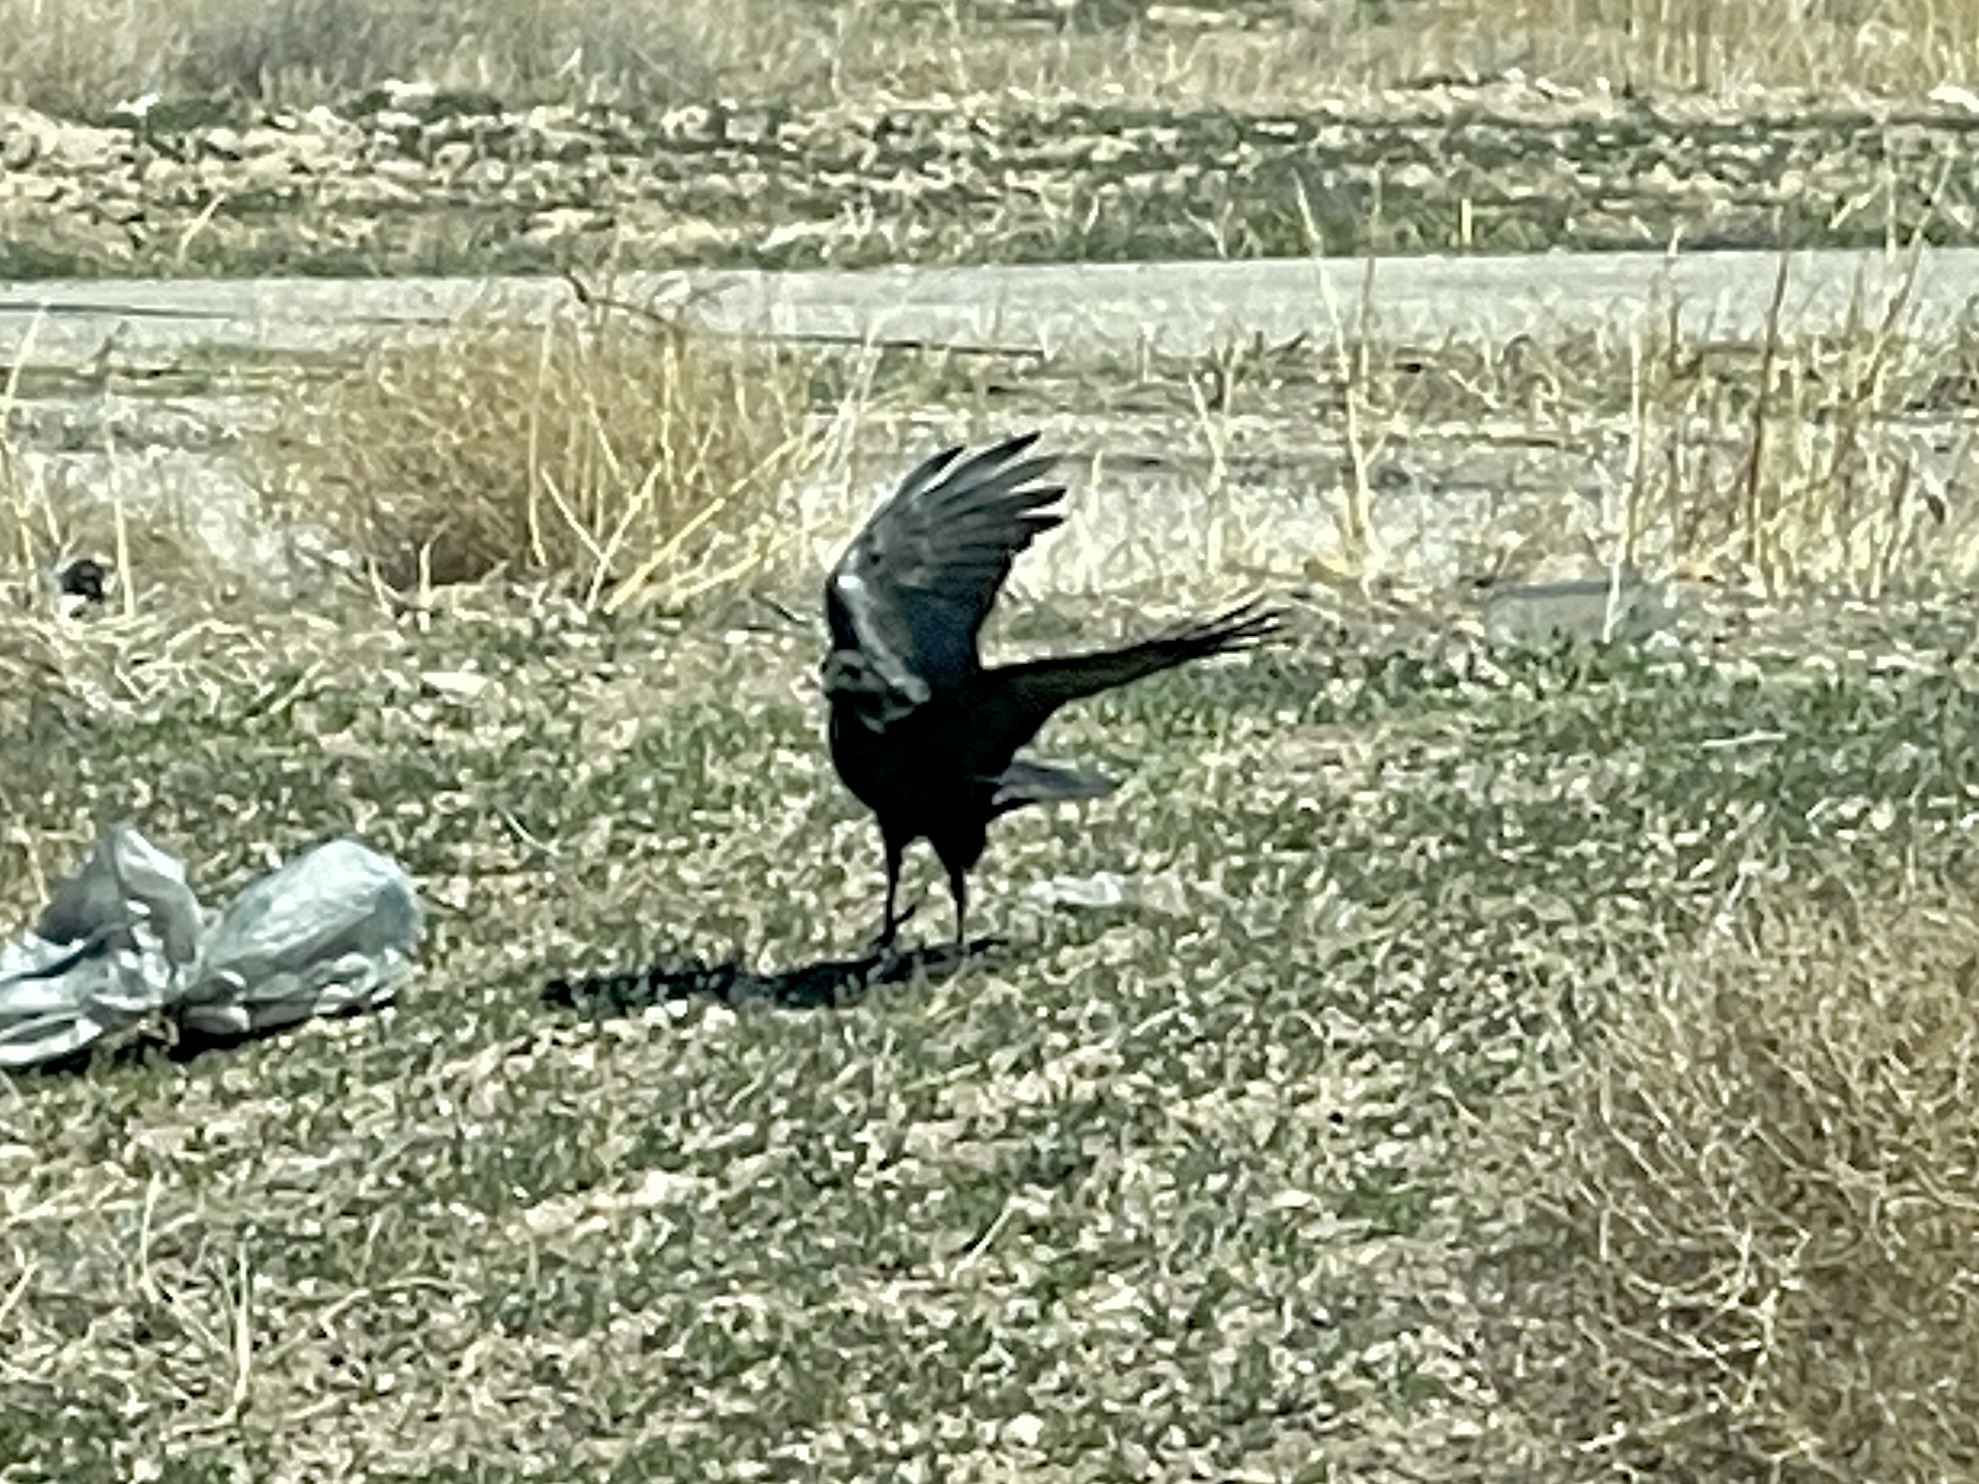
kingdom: Animalia
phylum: Chordata
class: Aves
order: Passeriformes
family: Corvidae
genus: Corvus
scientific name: Corvus corax
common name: Common raven
